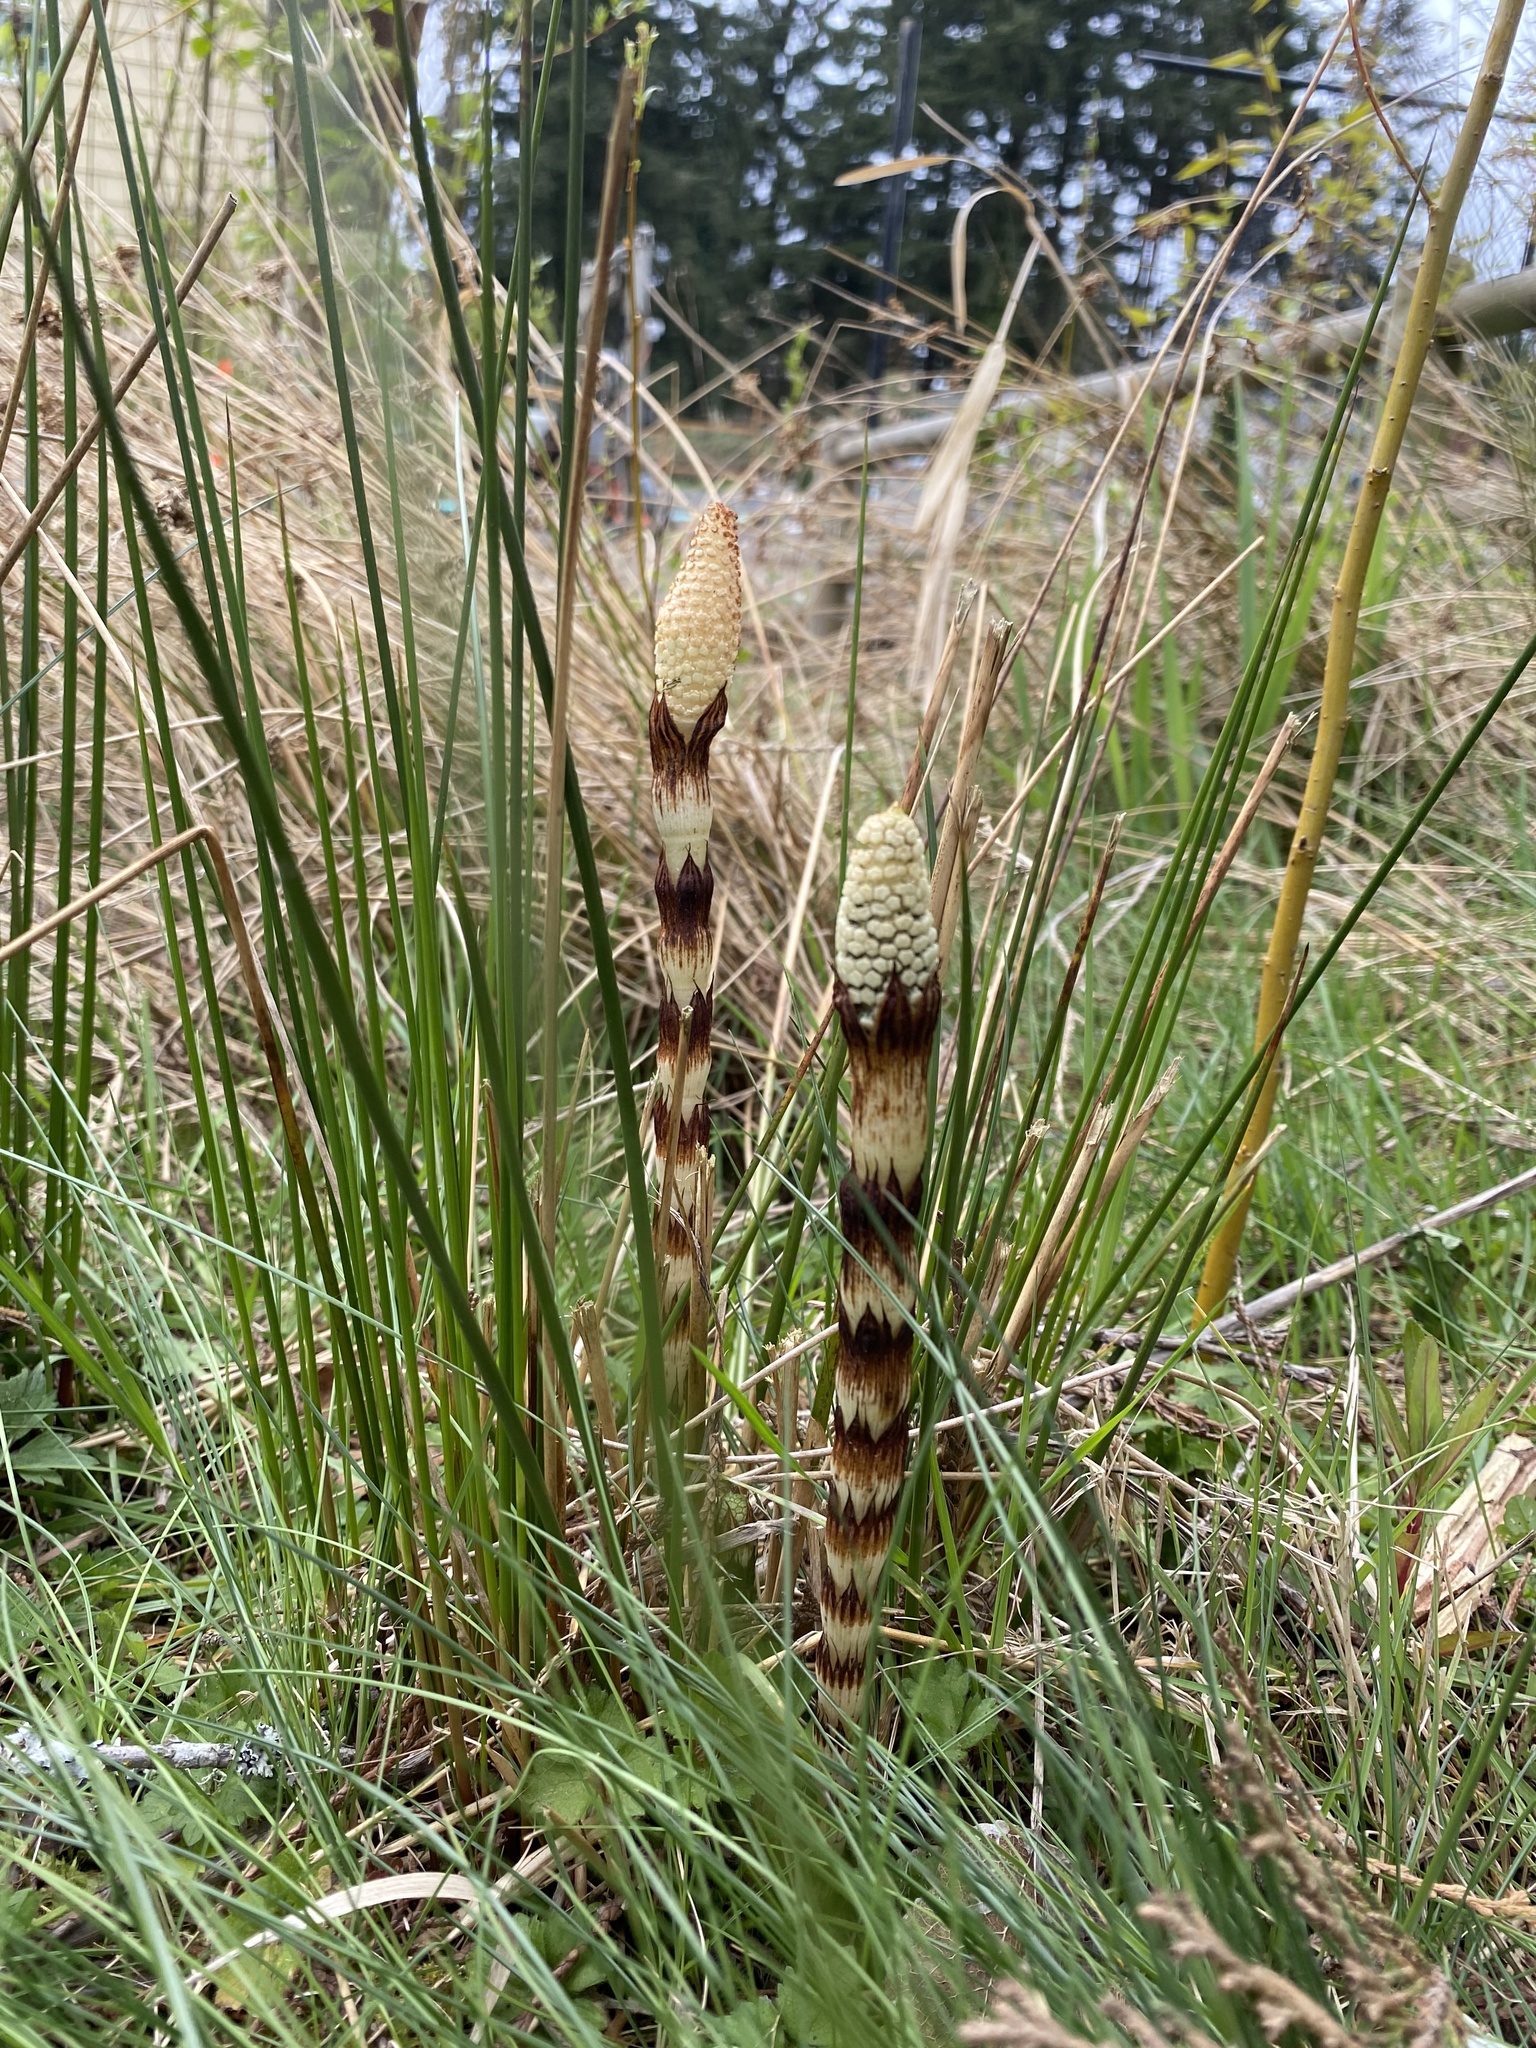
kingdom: Plantae
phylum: Tracheophyta
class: Polypodiopsida
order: Equisetales
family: Equisetaceae
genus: Equisetum
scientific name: Equisetum braunii
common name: Braun's horsetail
